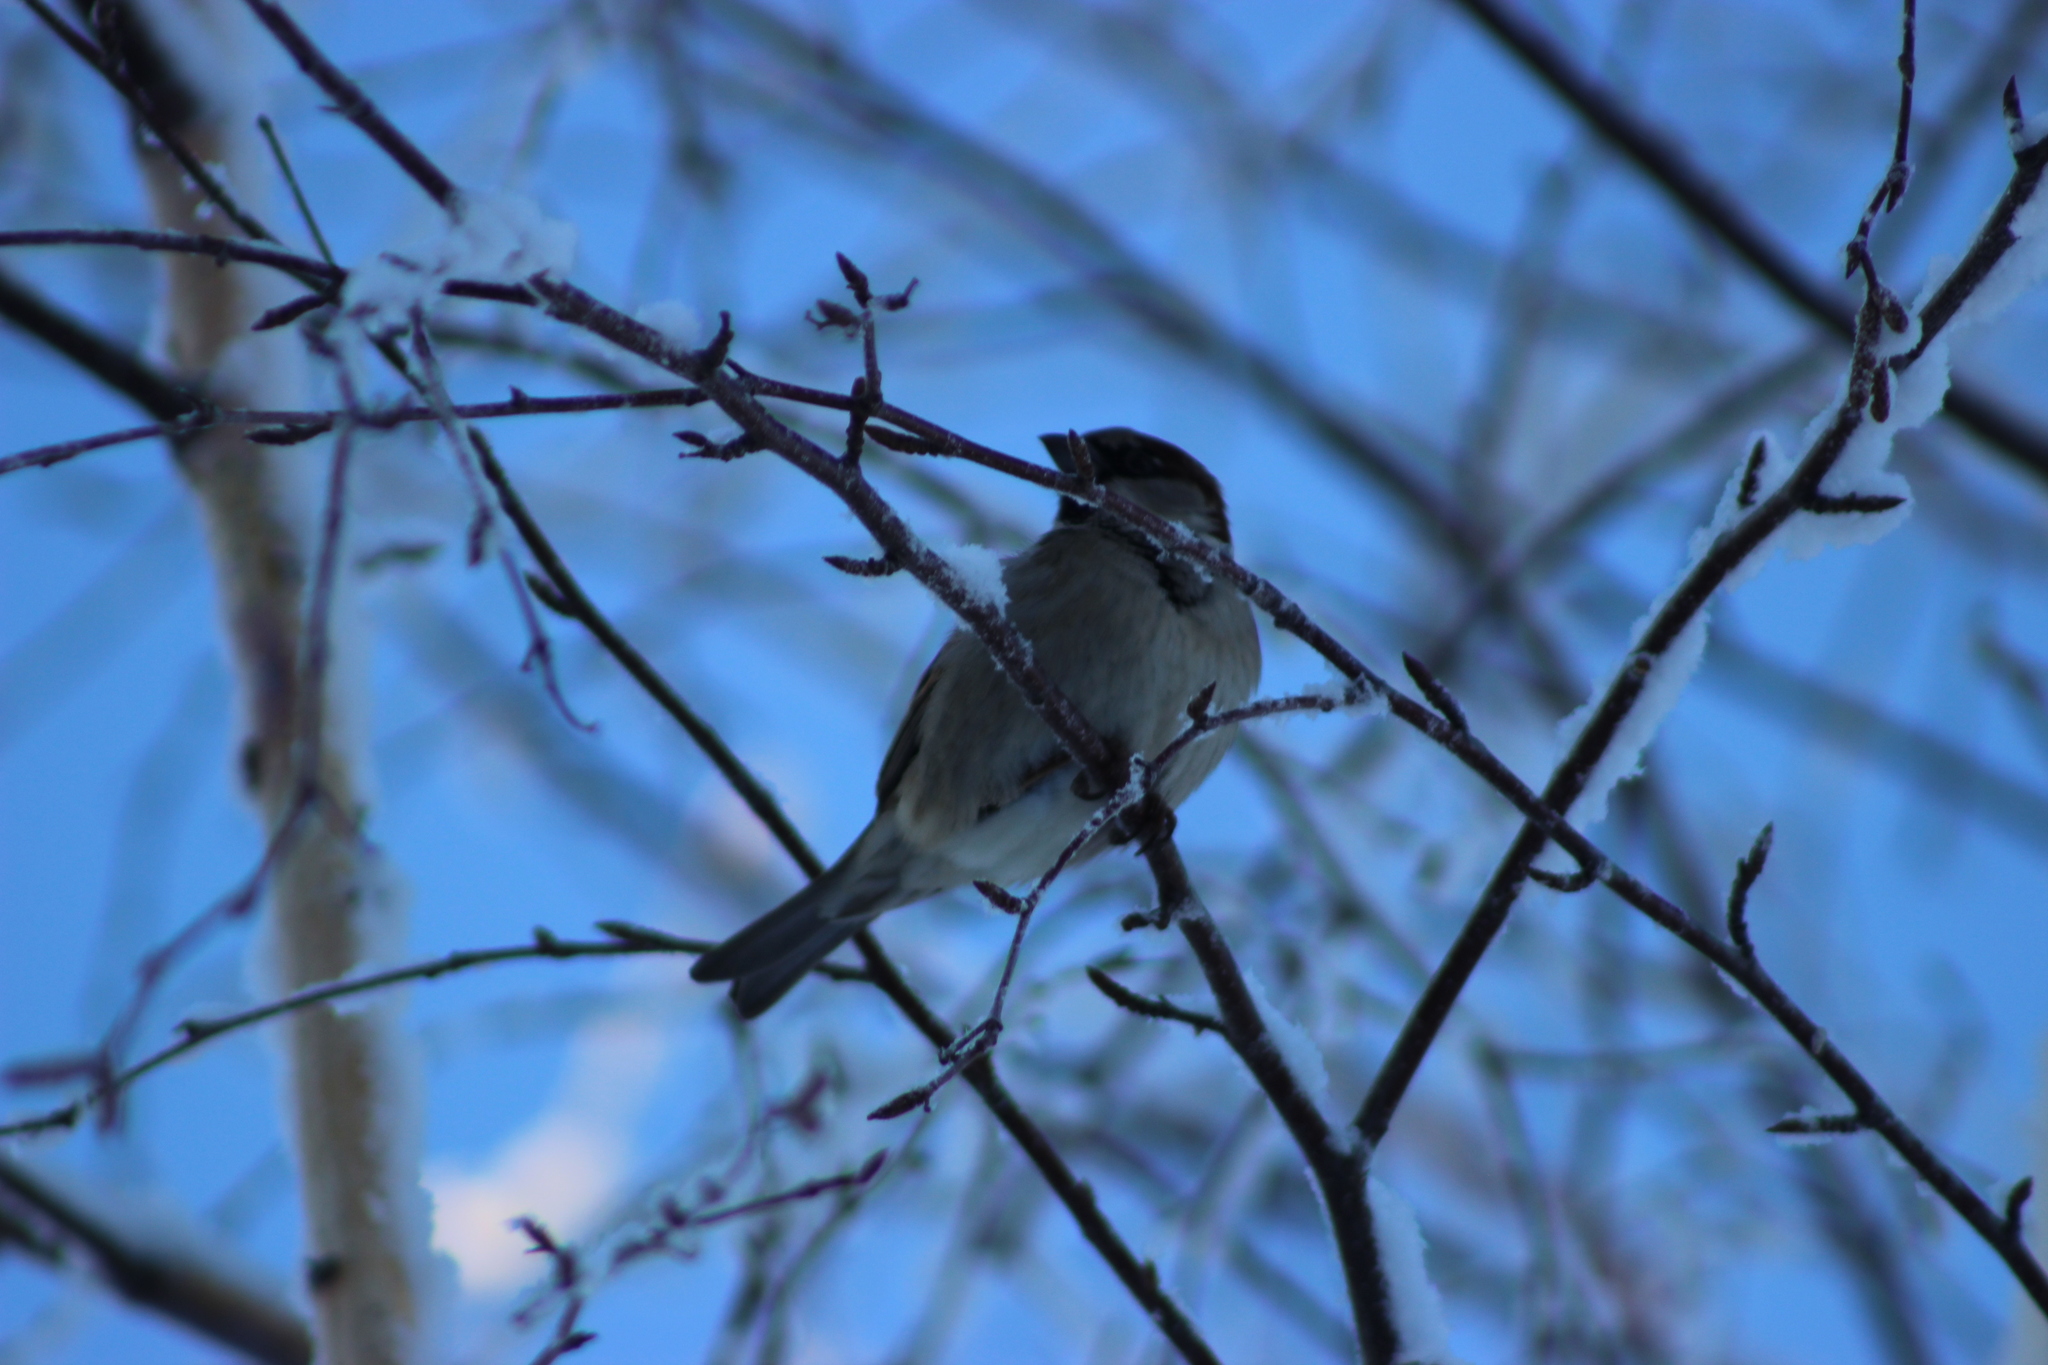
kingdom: Animalia
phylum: Chordata
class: Aves
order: Passeriformes
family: Passeridae
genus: Passer
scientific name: Passer domesticus
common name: House sparrow
